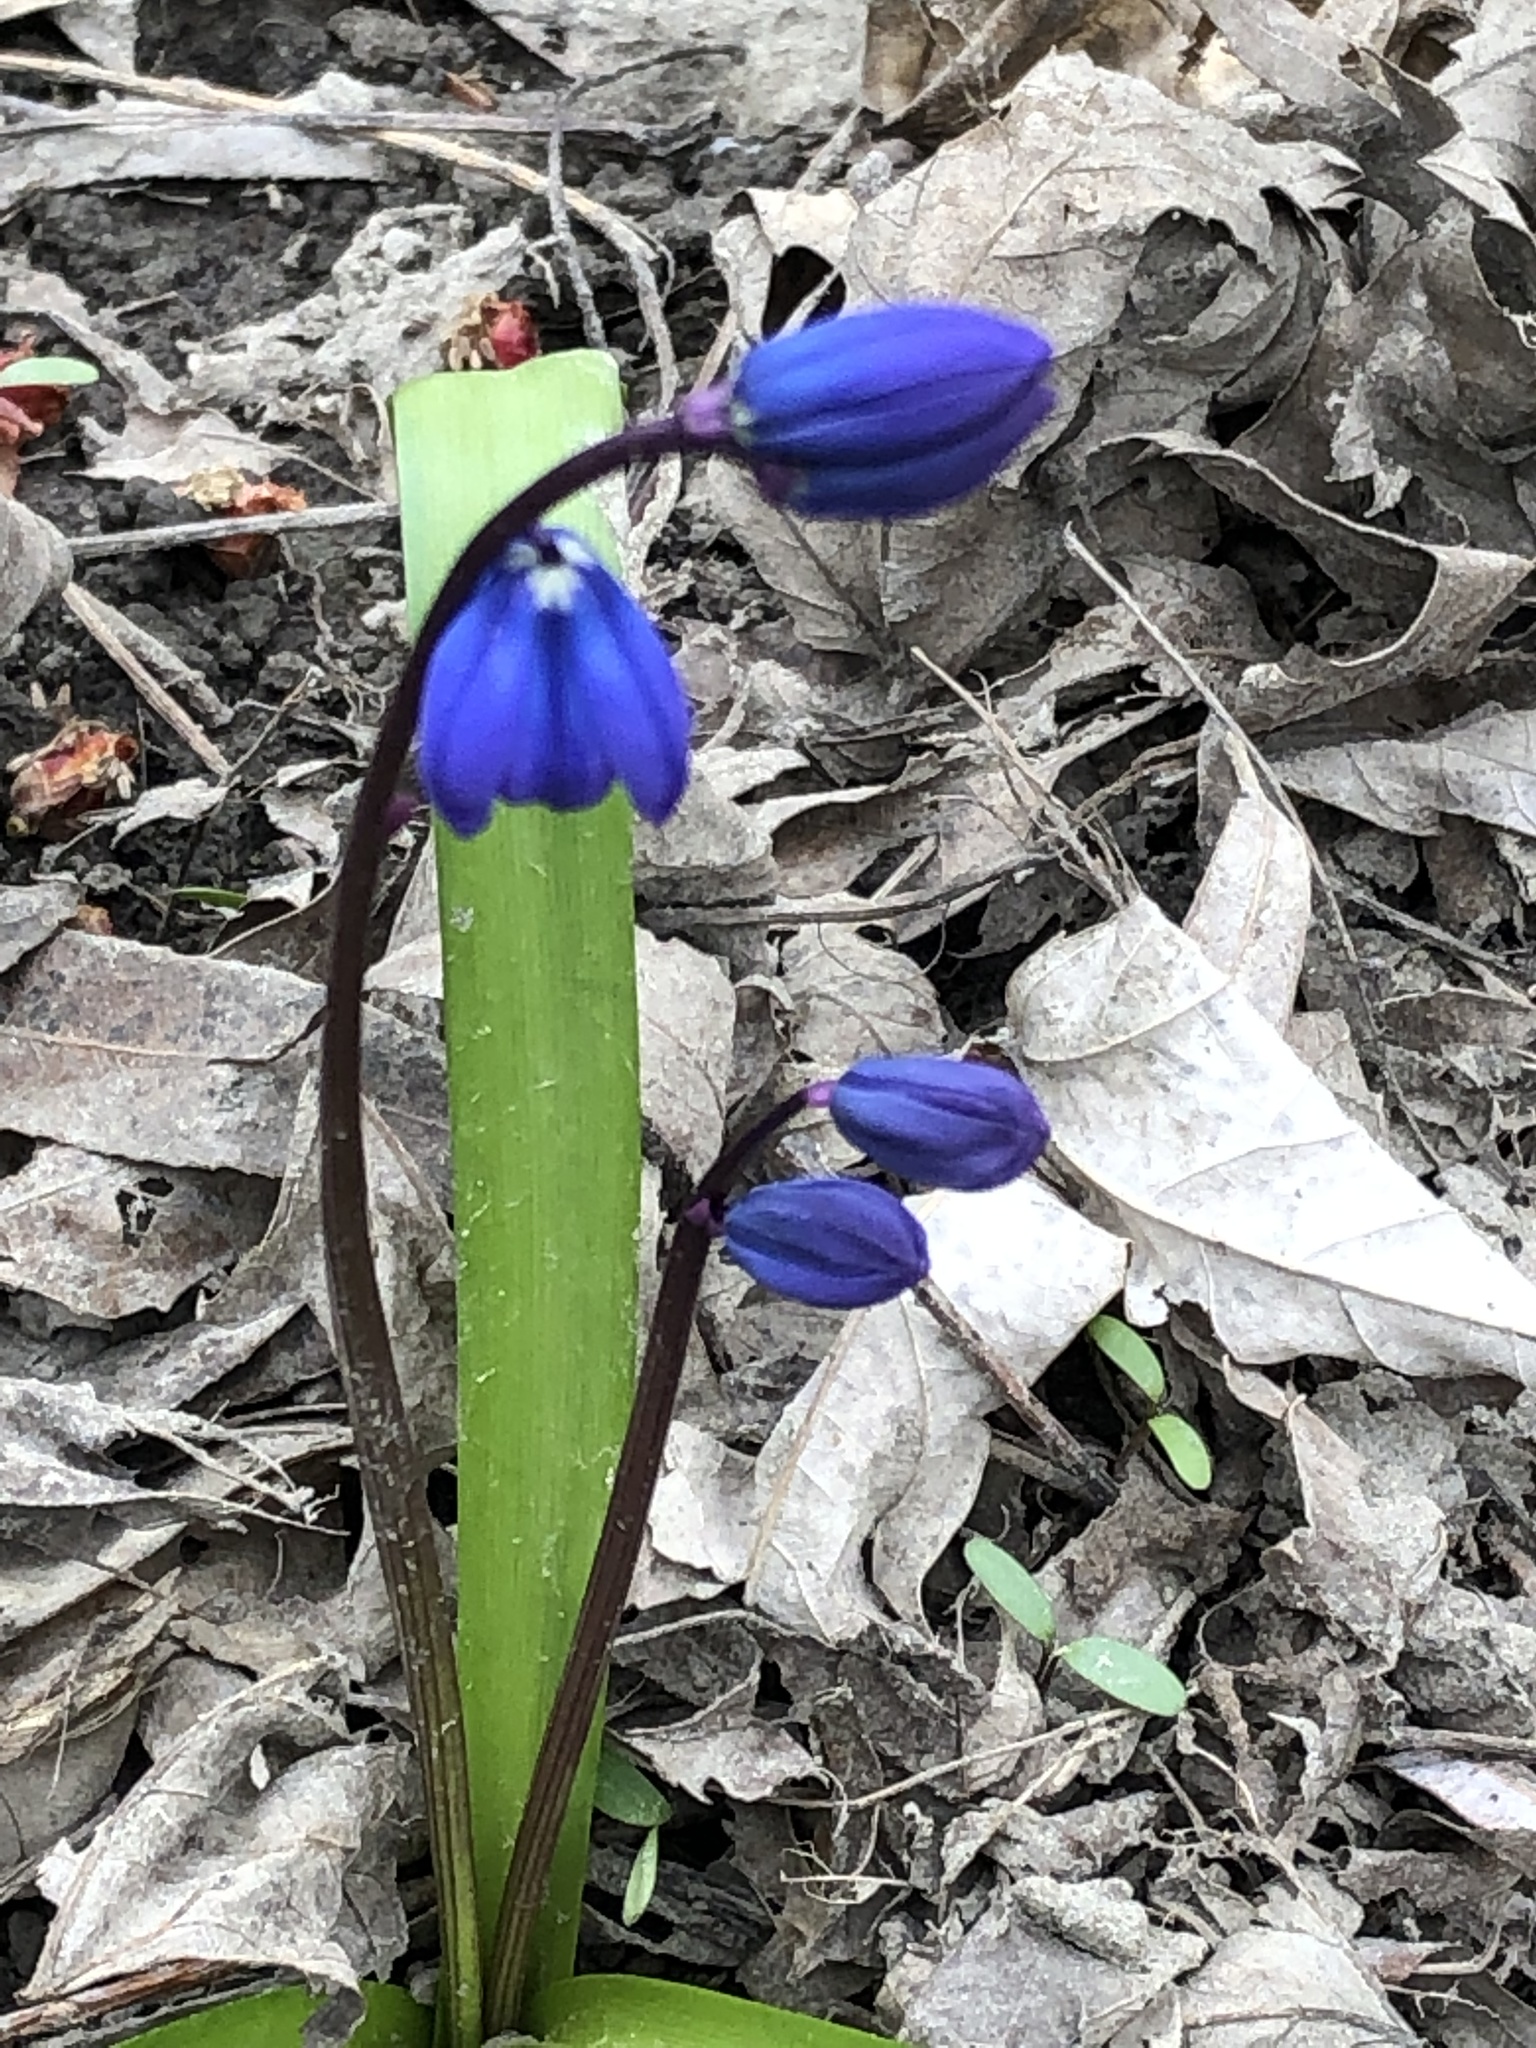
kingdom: Plantae
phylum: Tracheophyta
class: Liliopsida
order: Asparagales
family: Asparagaceae
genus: Scilla
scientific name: Scilla siberica
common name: Siberian squill
